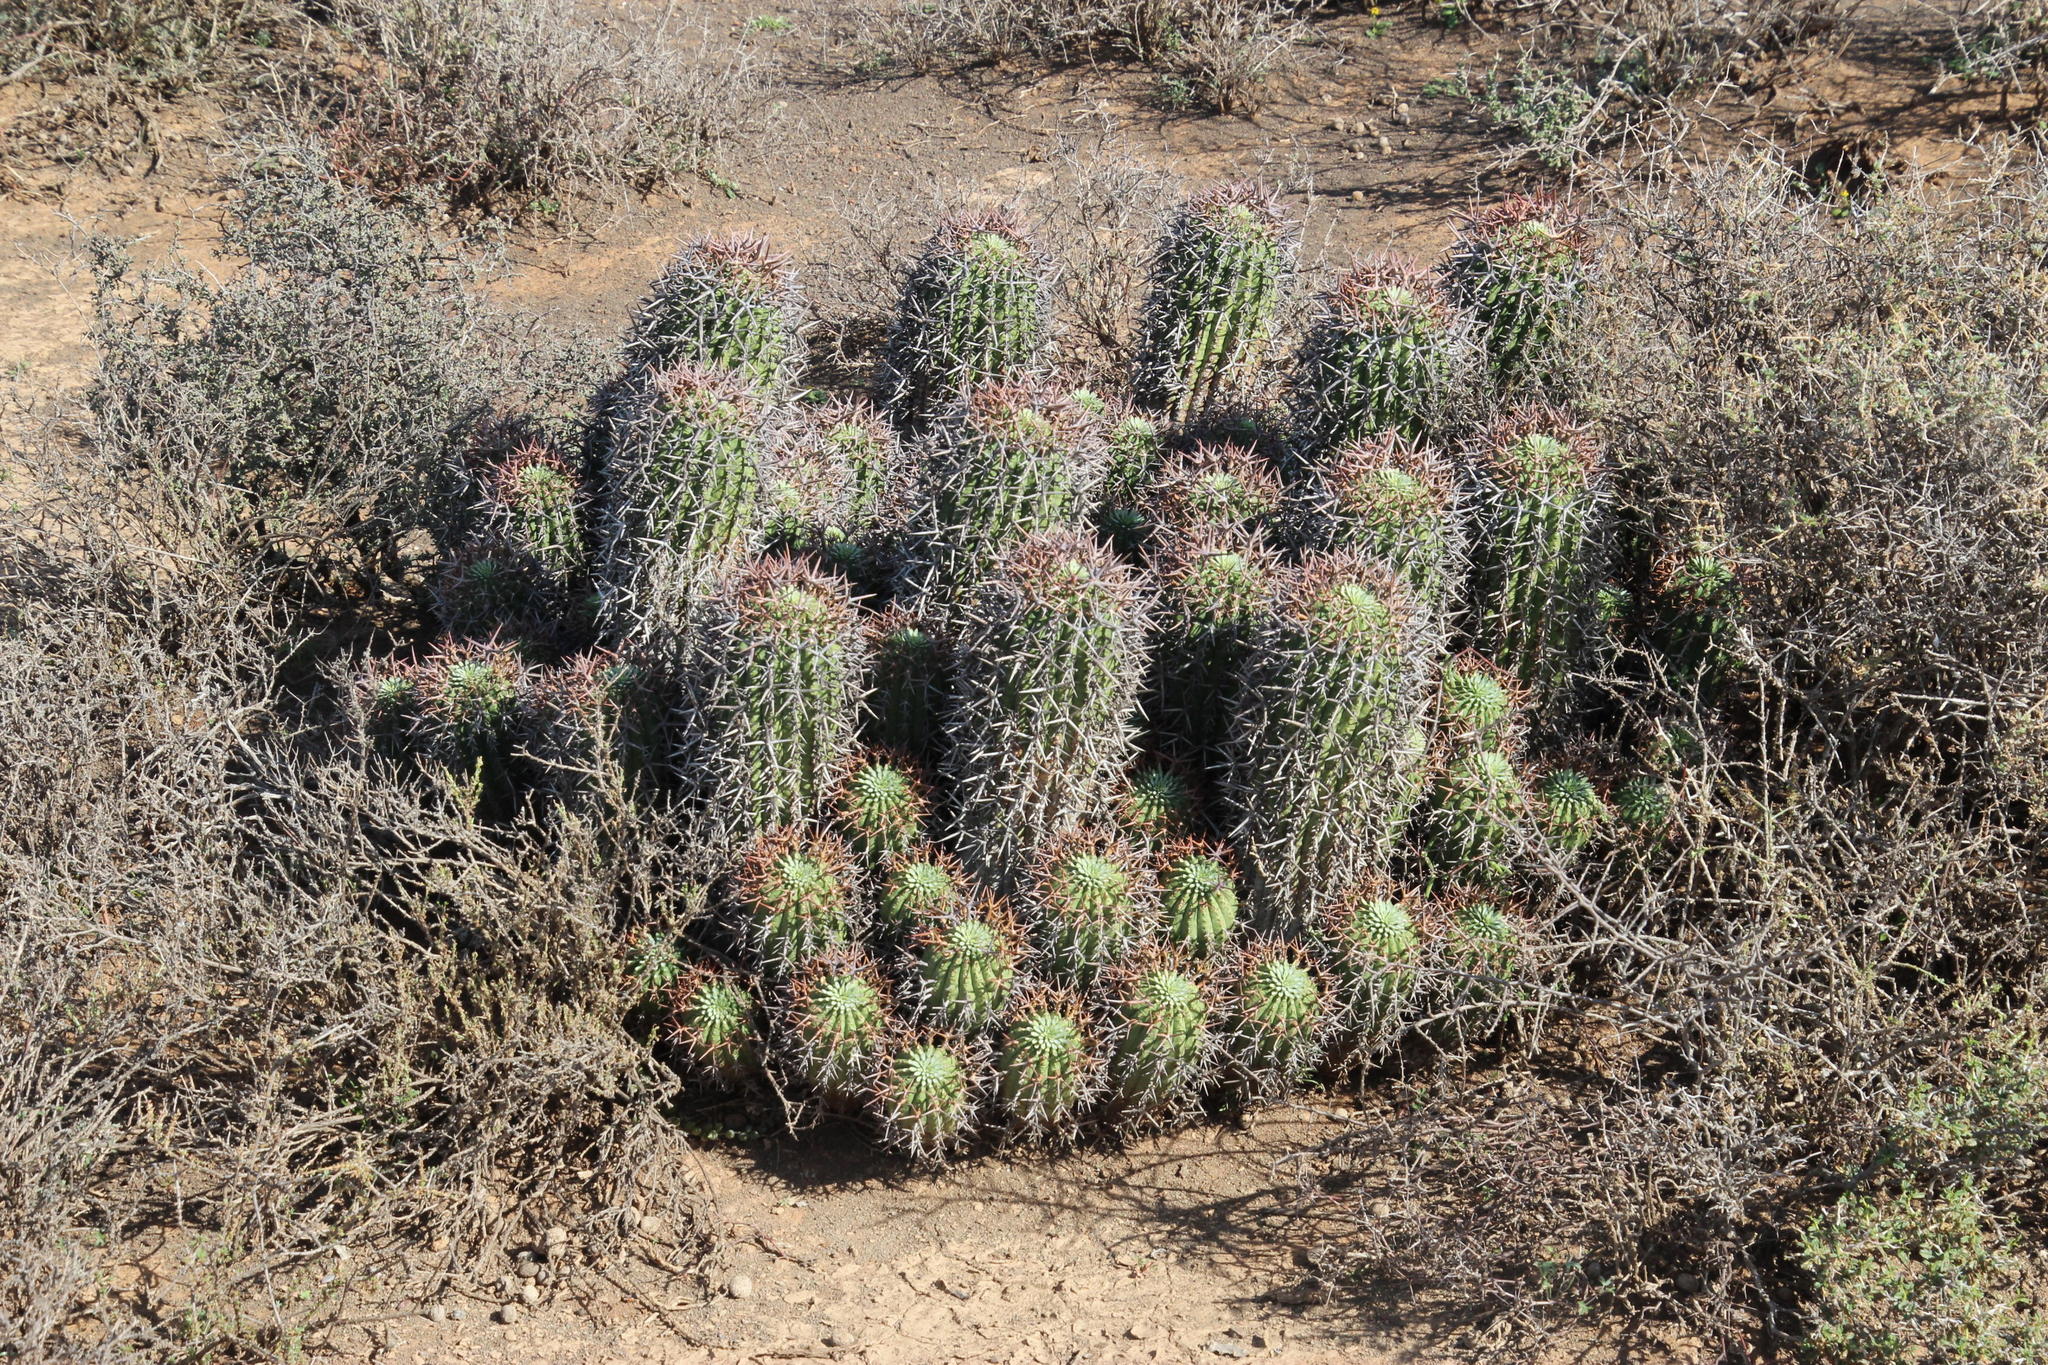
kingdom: Plantae
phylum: Tracheophyta
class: Magnoliopsida
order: Malpighiales
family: Euphorbiaceae
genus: Euphorbia
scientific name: Euphorbia stellispina
